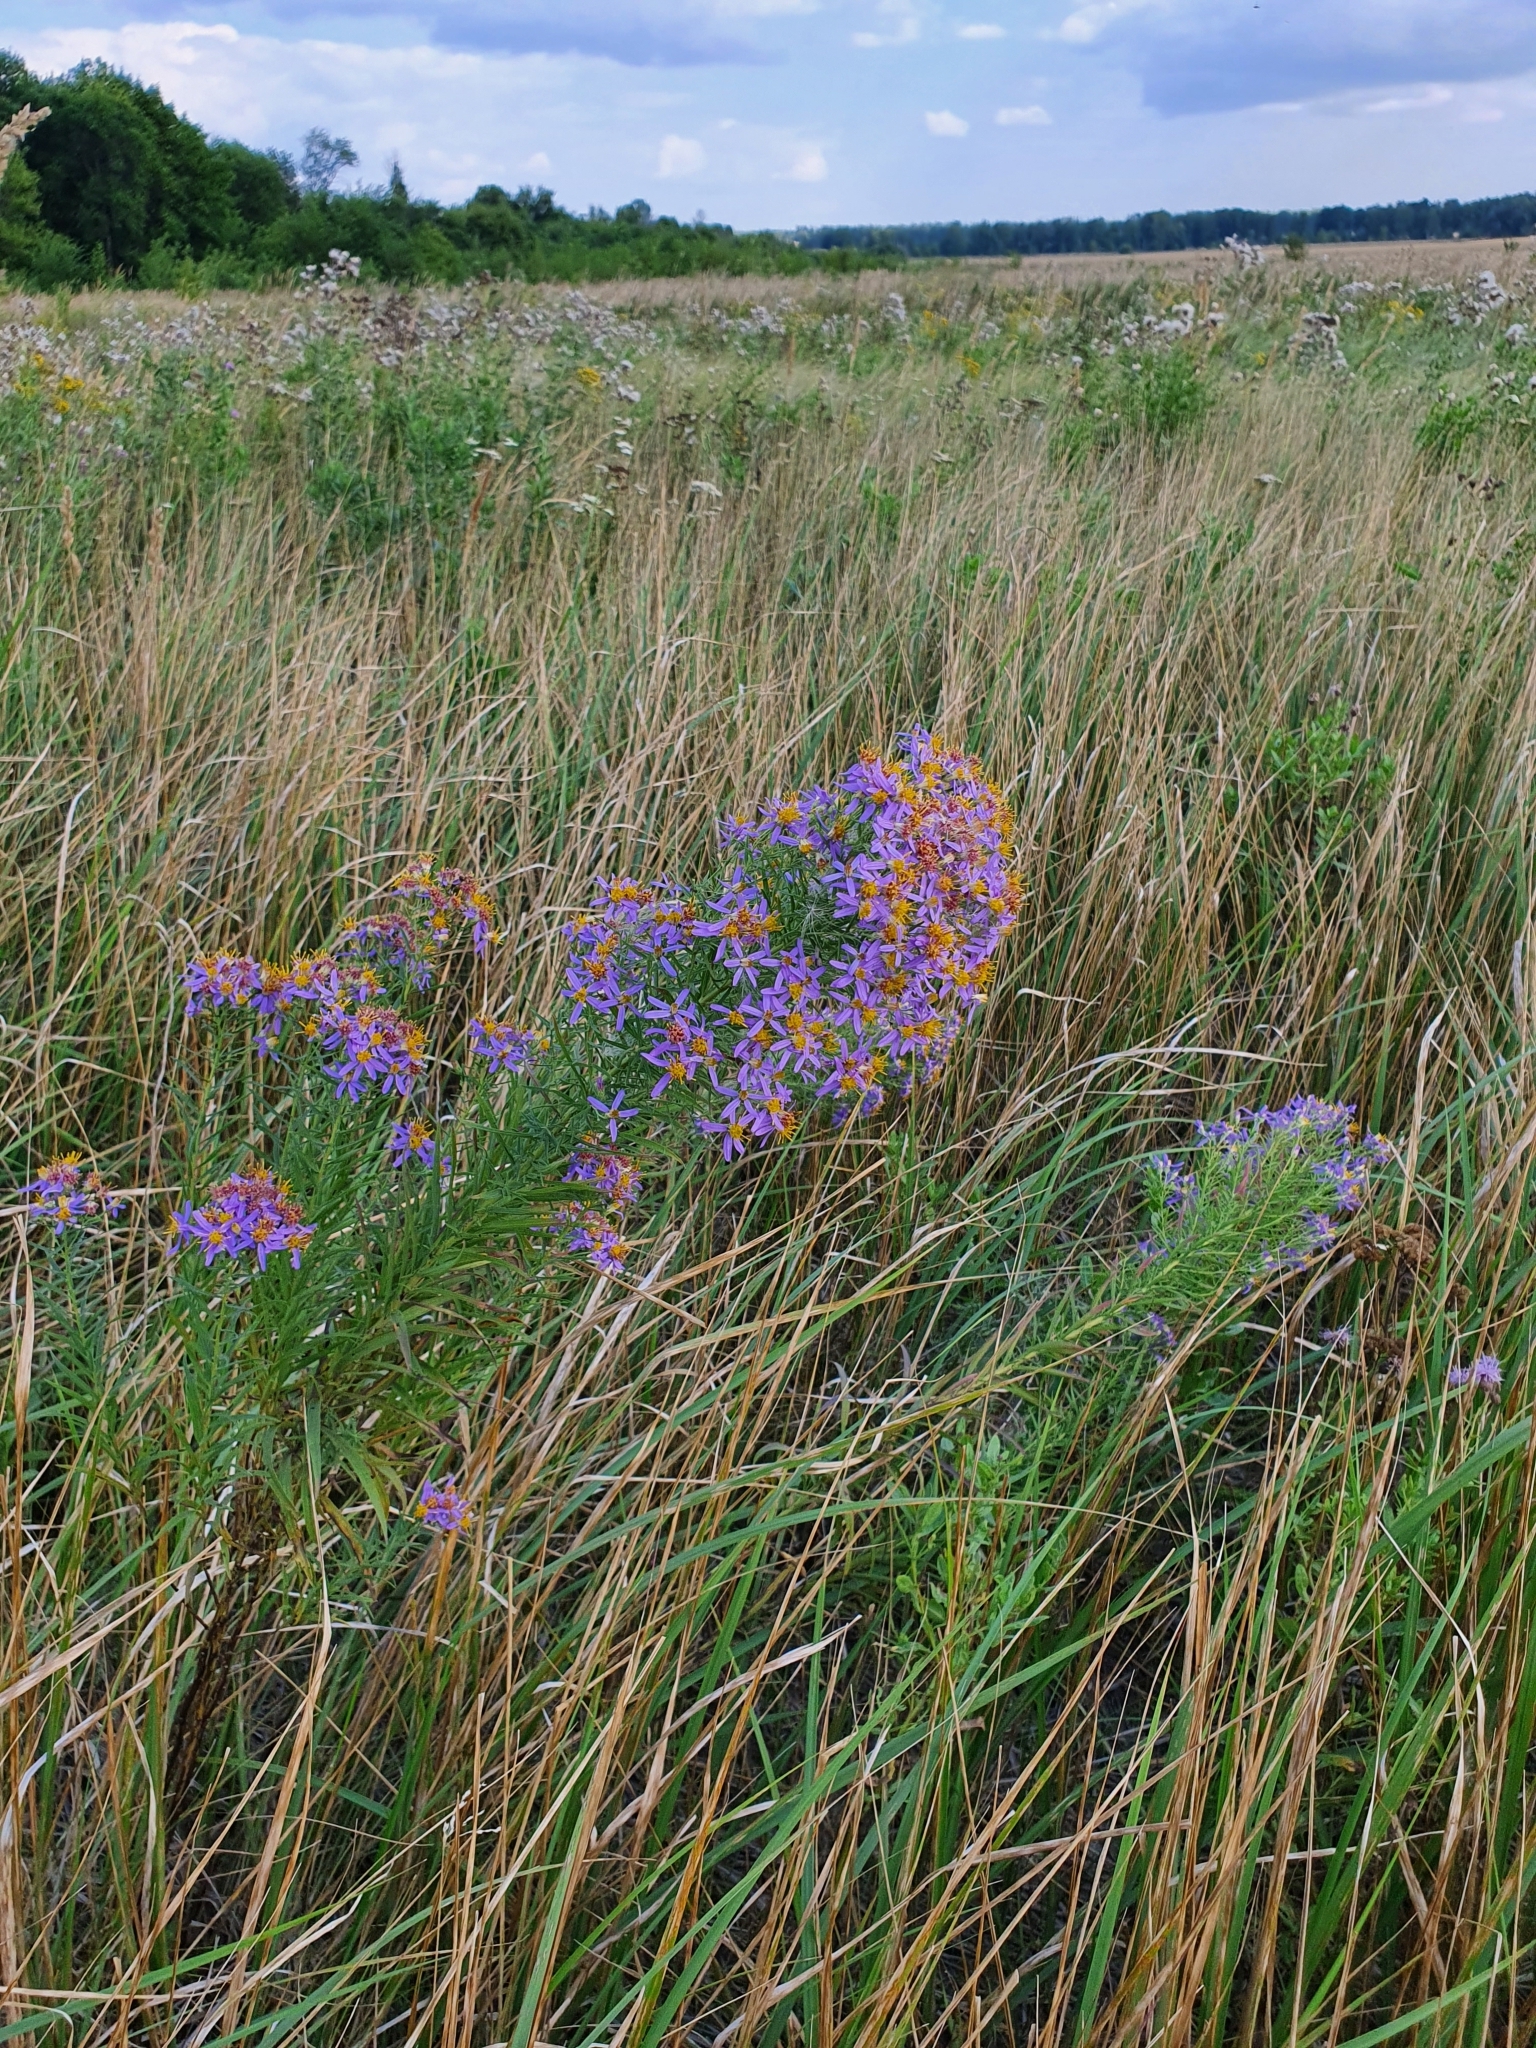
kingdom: Plantae
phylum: Tracheophyta
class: Magnoliopsida
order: Asterales
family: Asteraceae
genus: Galatella
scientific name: Galatella sedifolia
